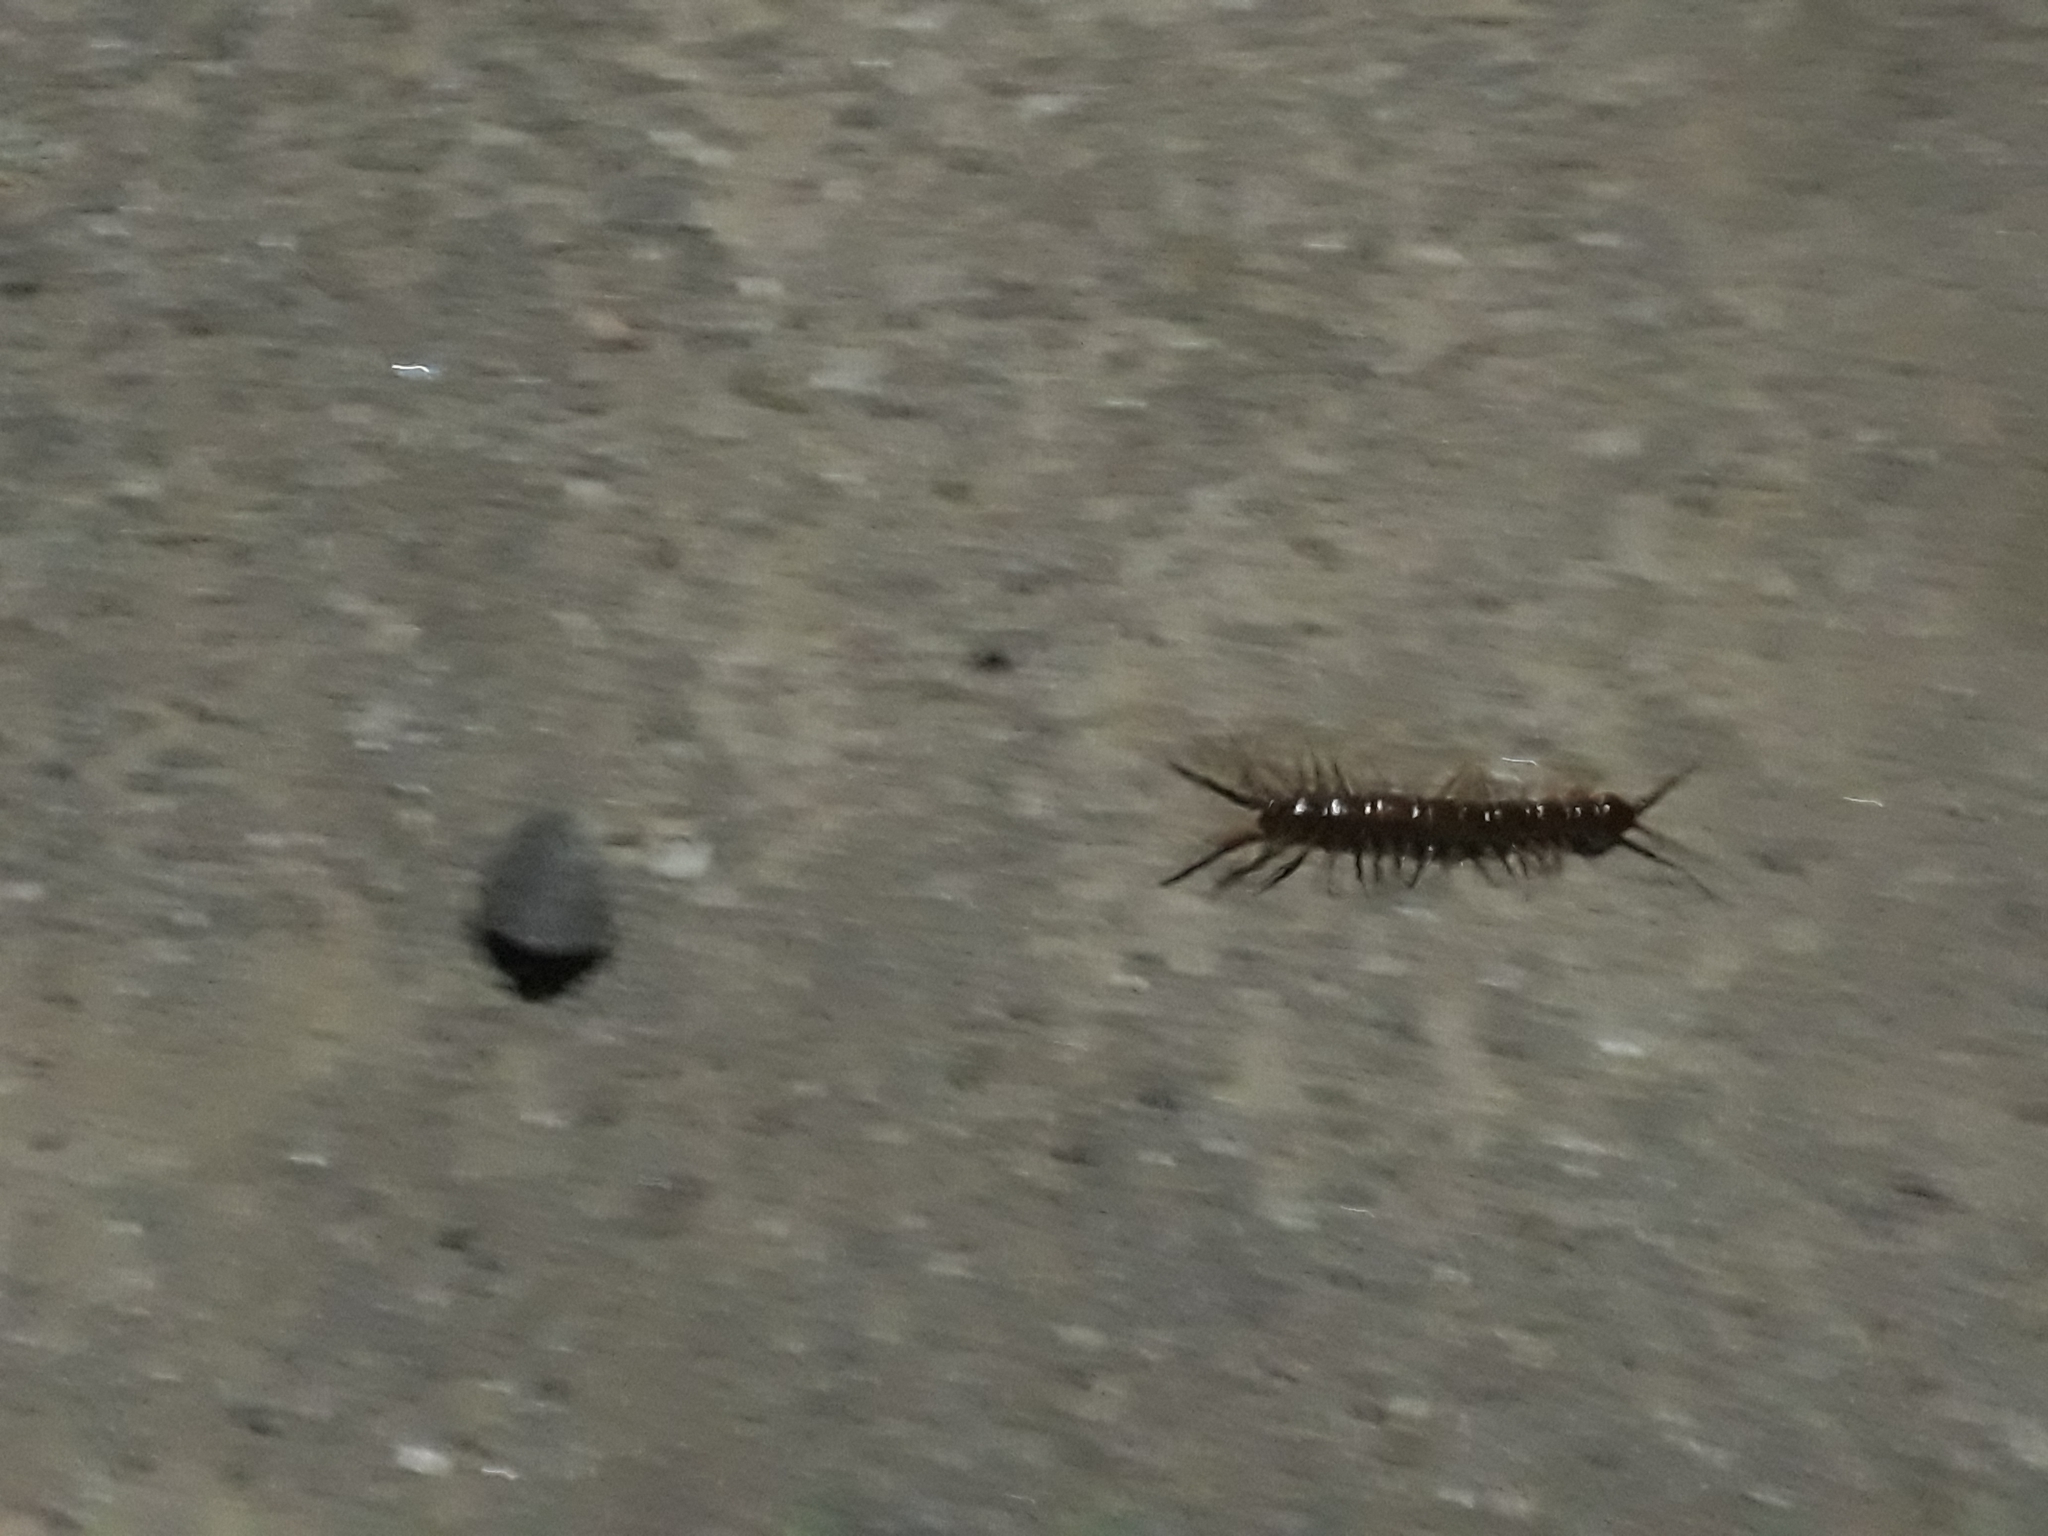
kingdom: Animalia
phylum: Arthropoda
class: Chilopoda
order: Lithobiomorpha
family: Lithobiidae
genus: Lithobius
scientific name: Lithobius forficatus
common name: Centipede
